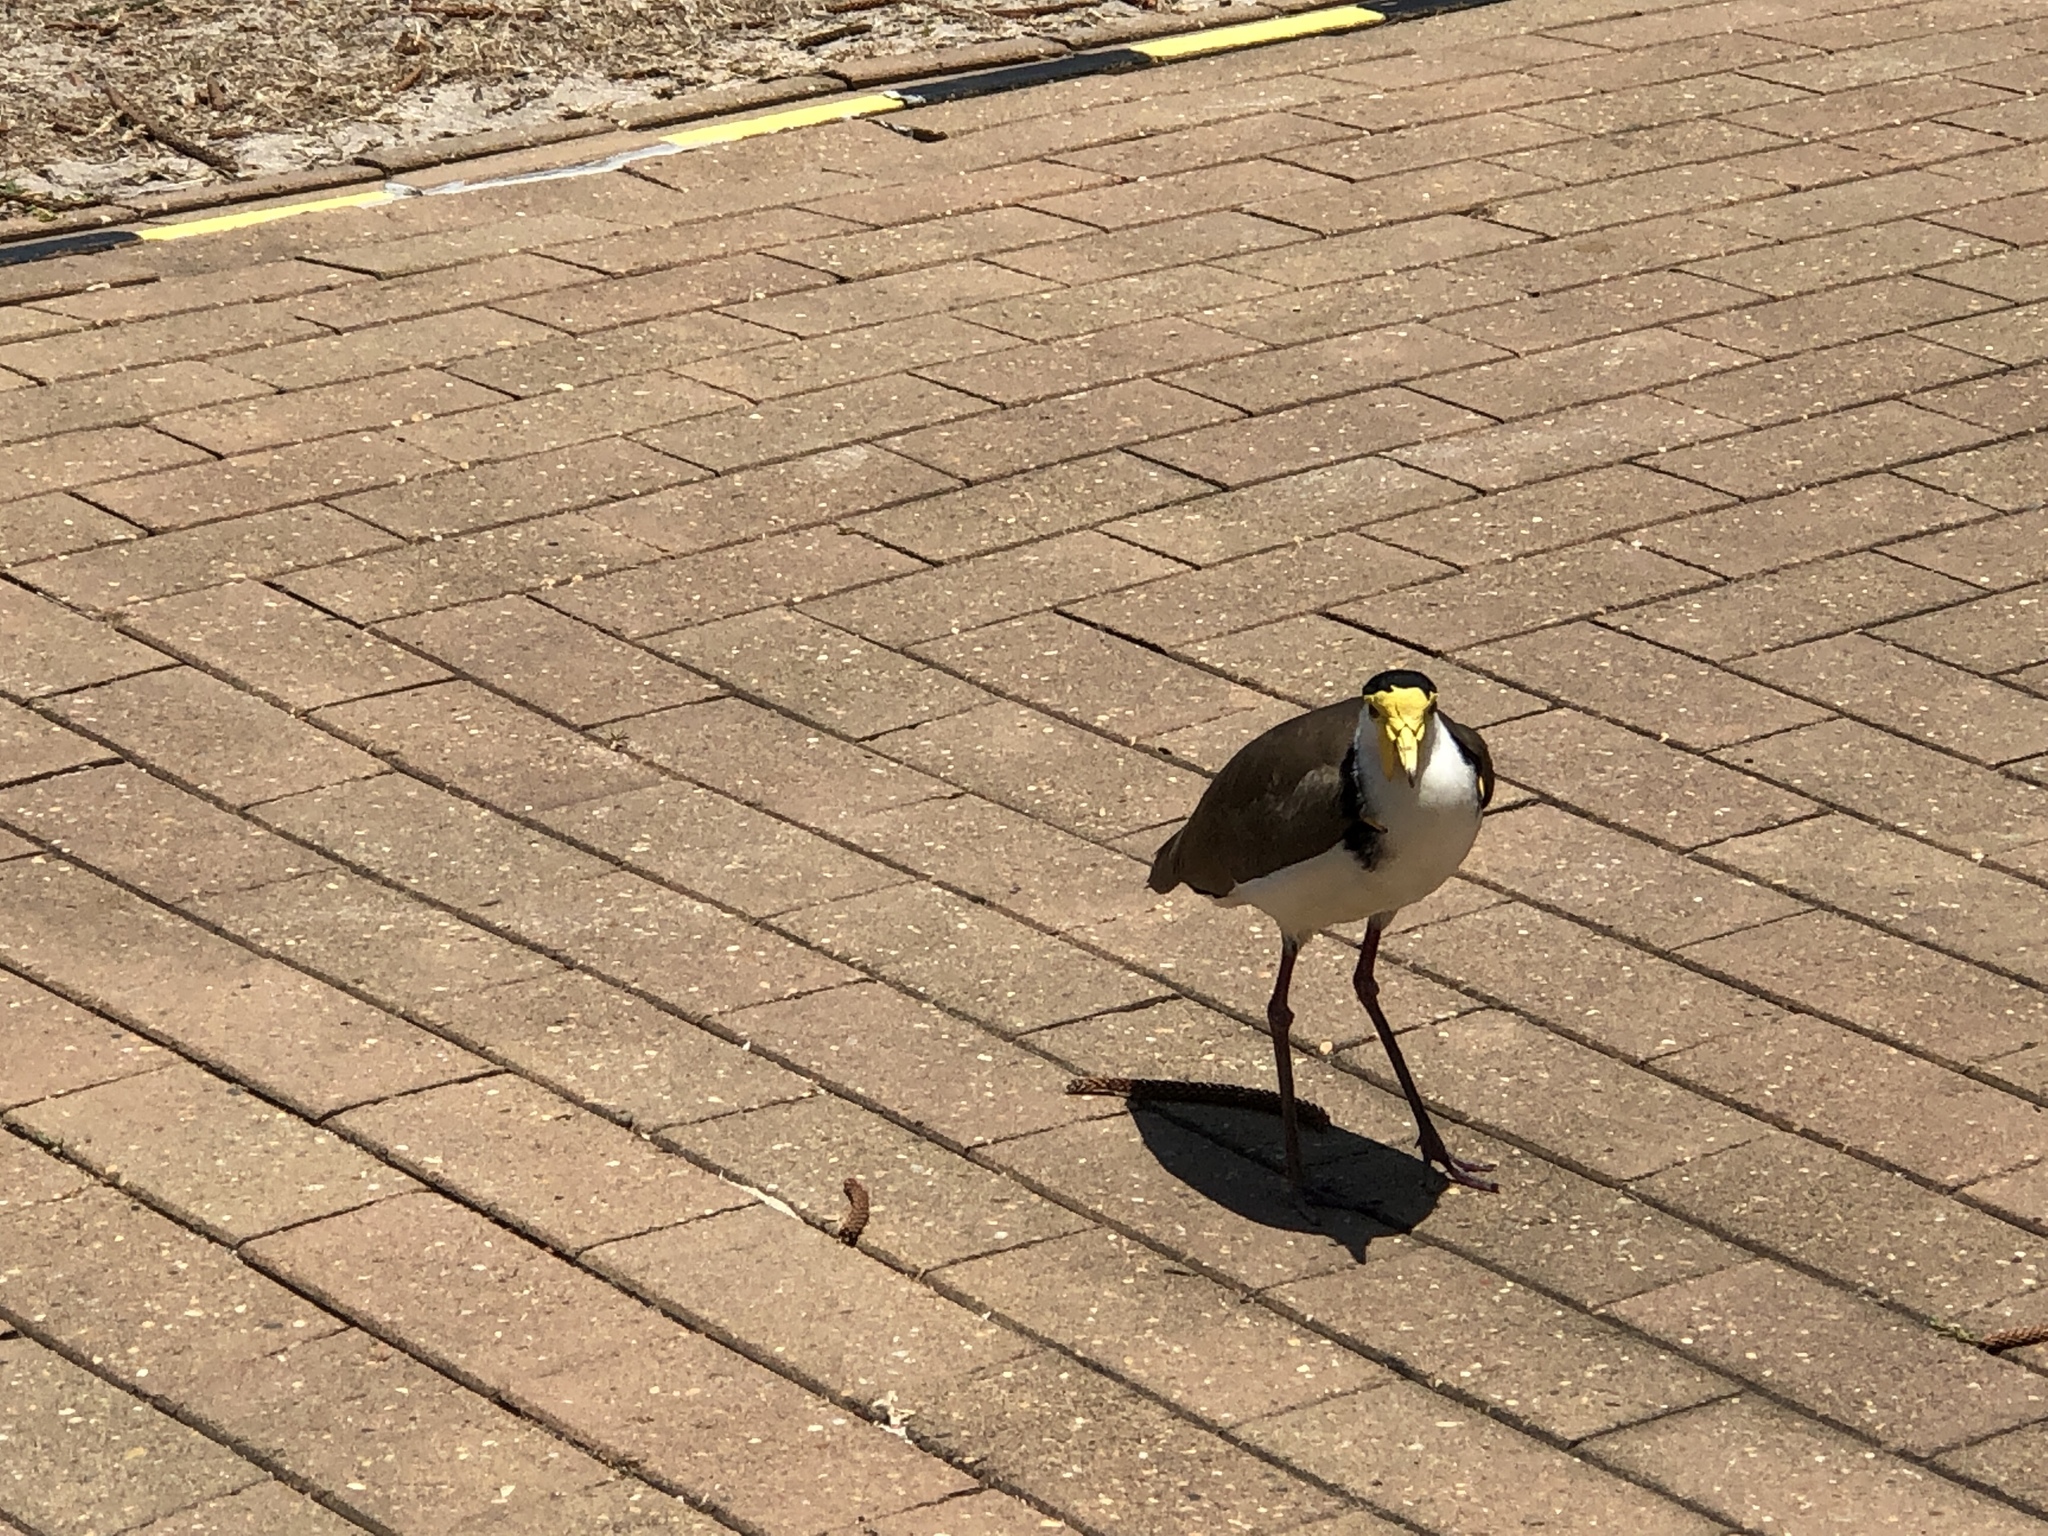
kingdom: Animalia
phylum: Chordata
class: Aves
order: Charadriiformes
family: Charadriidae
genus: Vanellus
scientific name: Vanellus miles
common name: Masked lapwing
